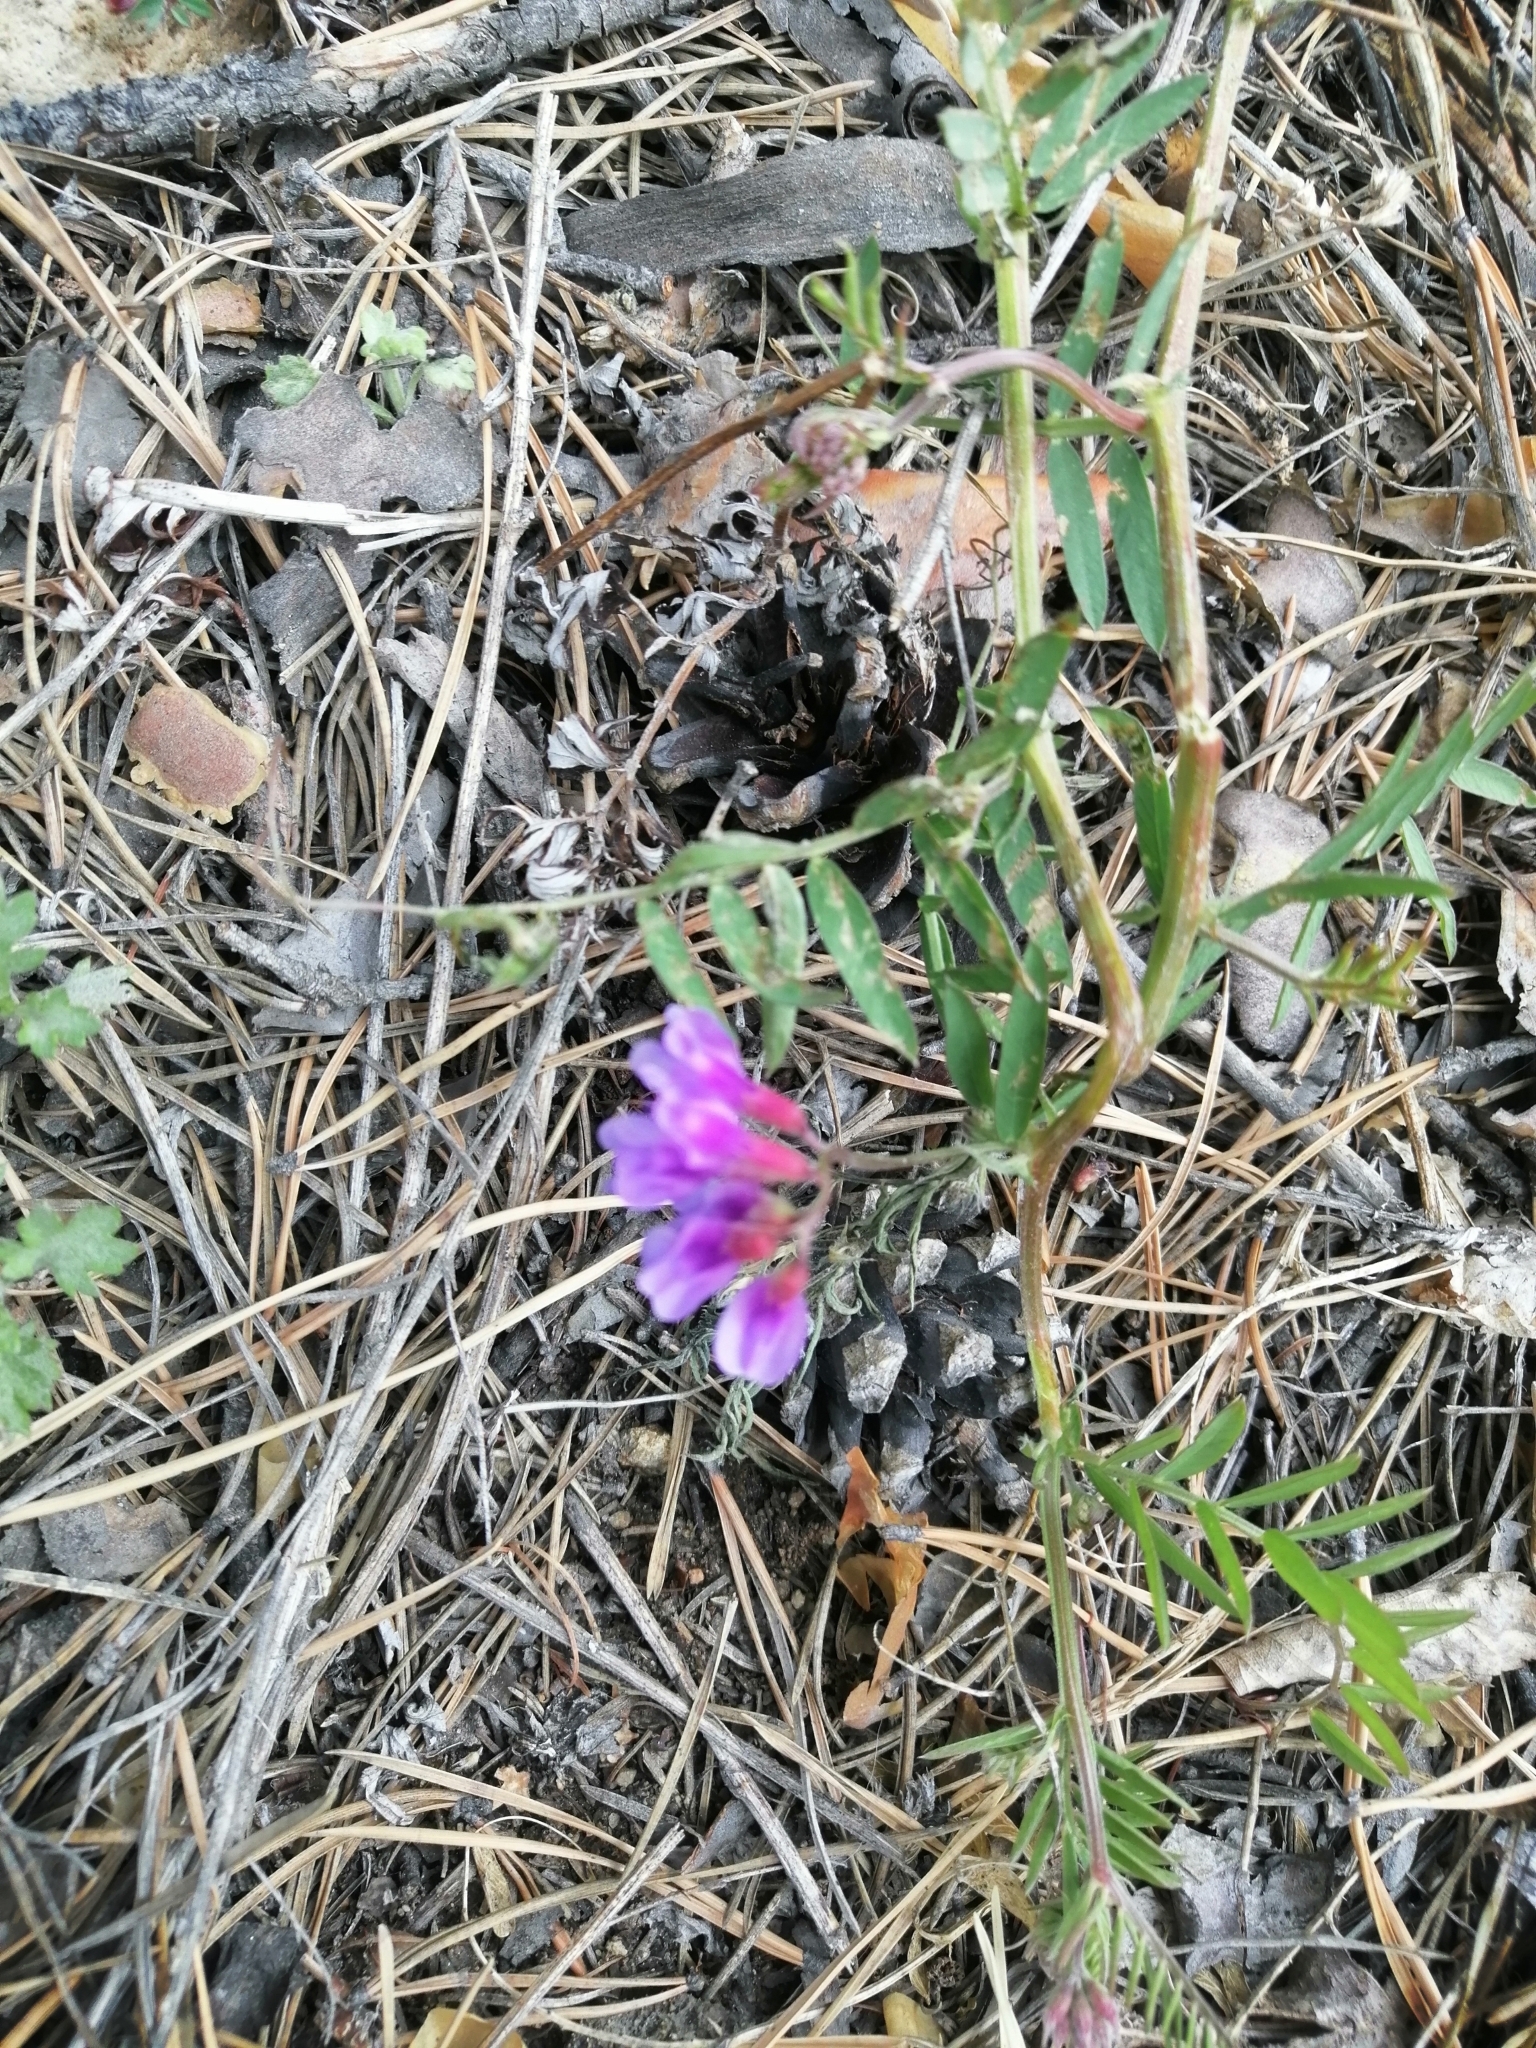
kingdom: Plantae
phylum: Tracheophyta
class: Magnoliopsida
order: Fabales
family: Fabaceae
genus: Vicia
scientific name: Vicia cracca
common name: Bird vetch
